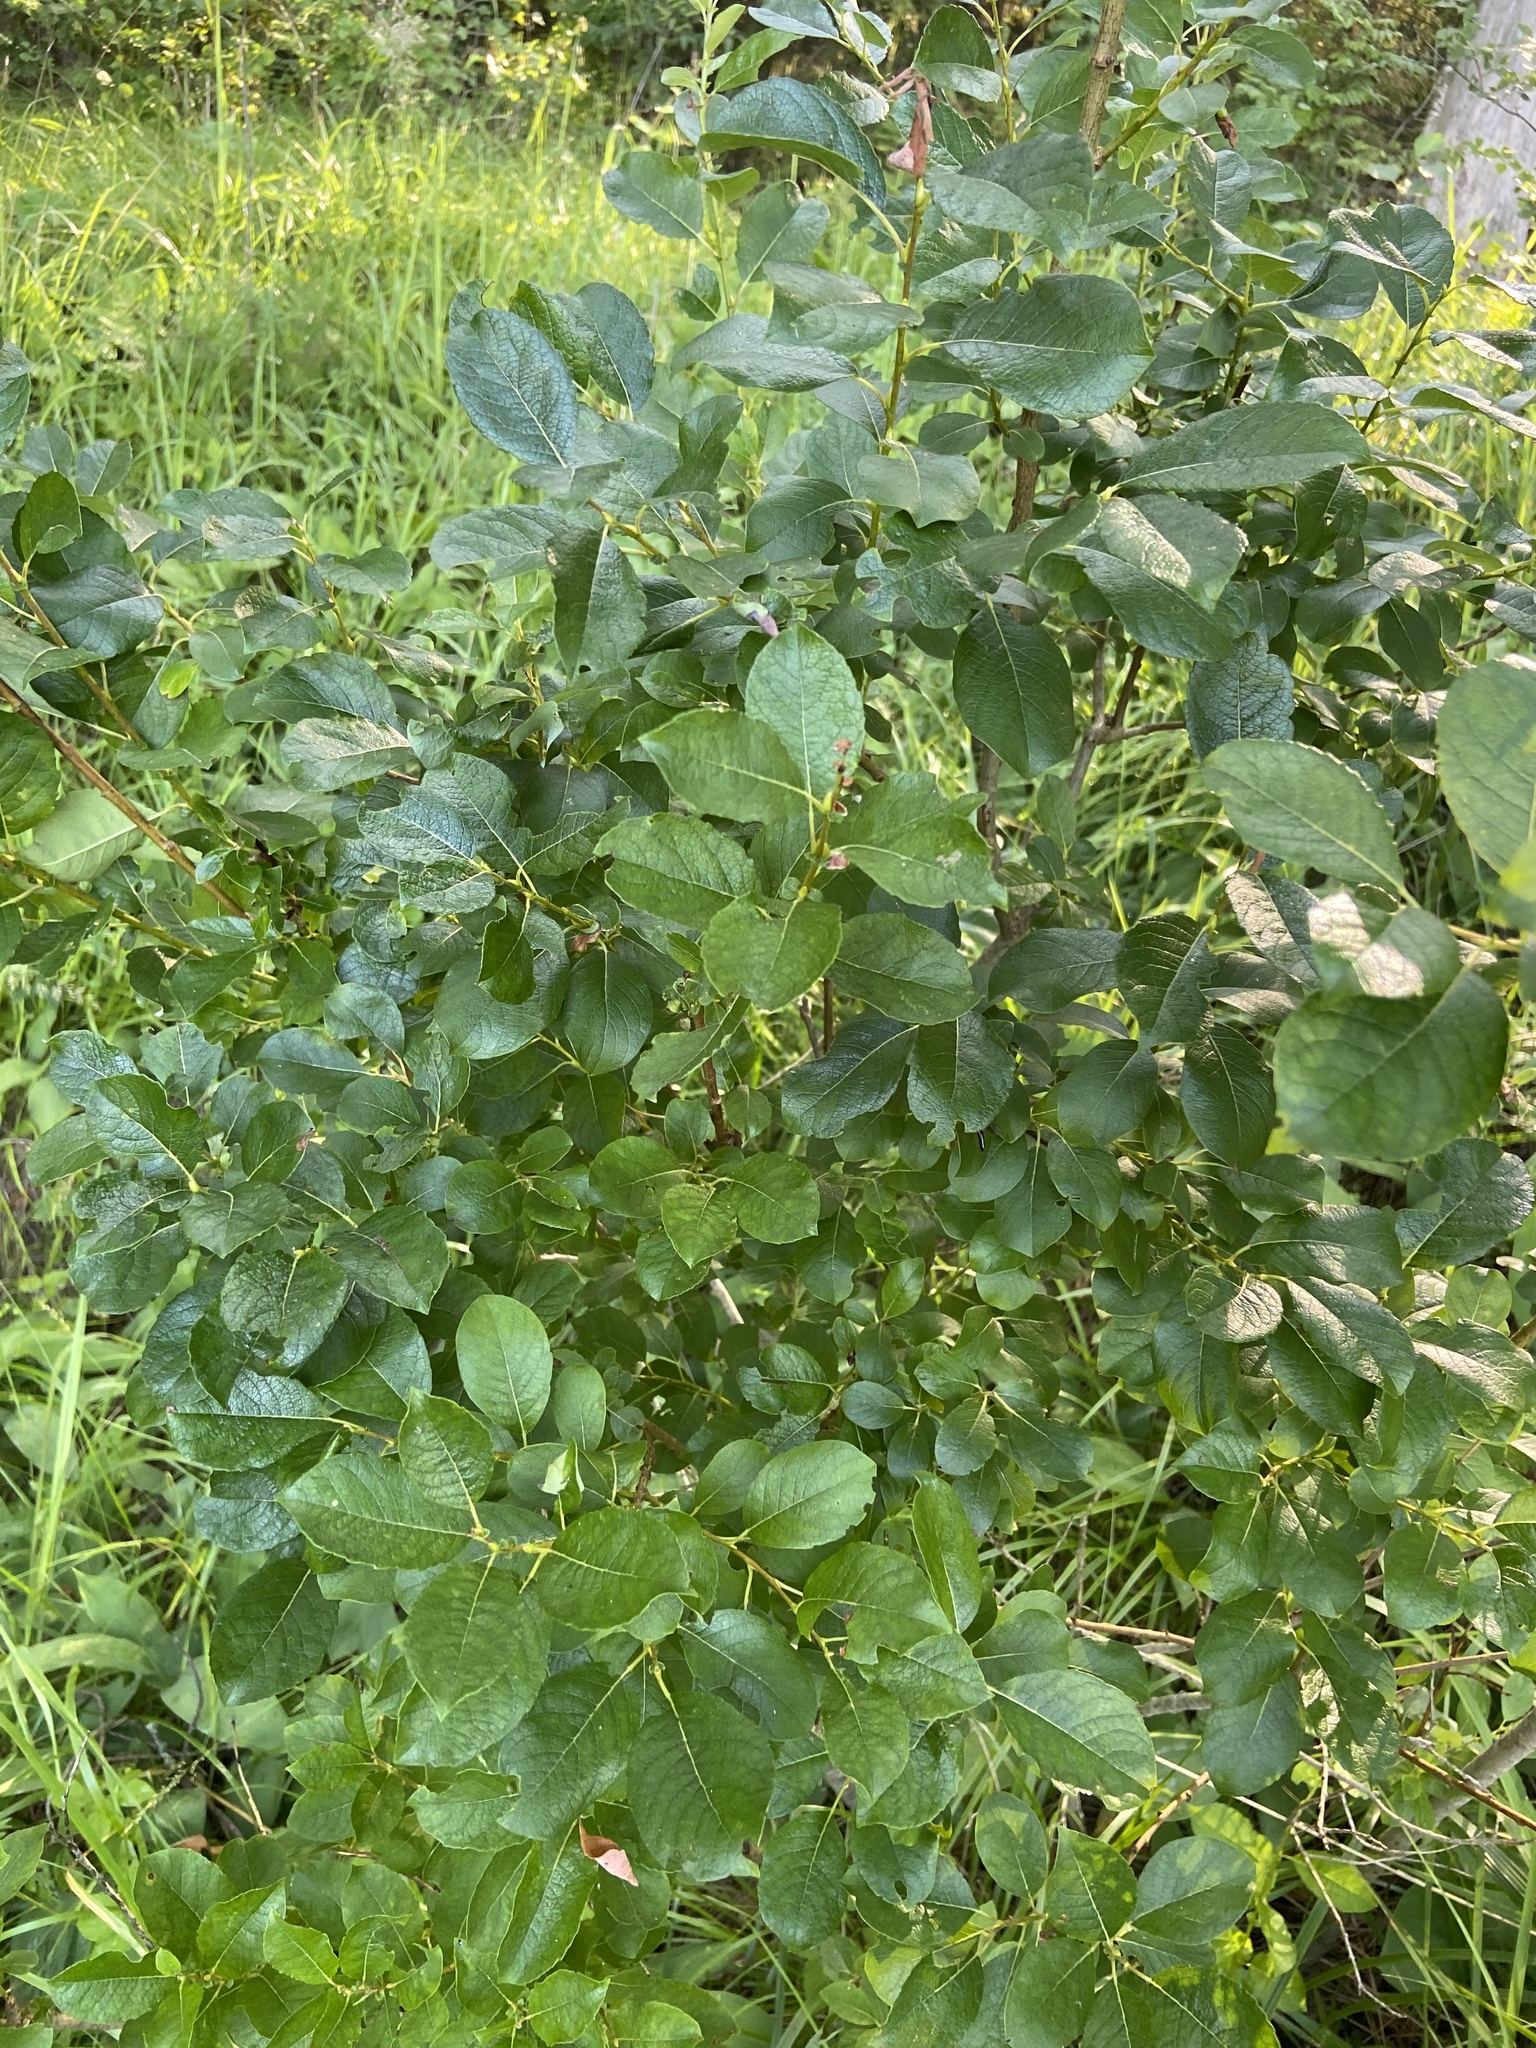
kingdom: Plantae
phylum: Tracheophyta
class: Magnoliopsida
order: Malpighiales
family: Salicaceae
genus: Salix
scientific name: Salix myrsinifolia
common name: Dark-leaved willow
